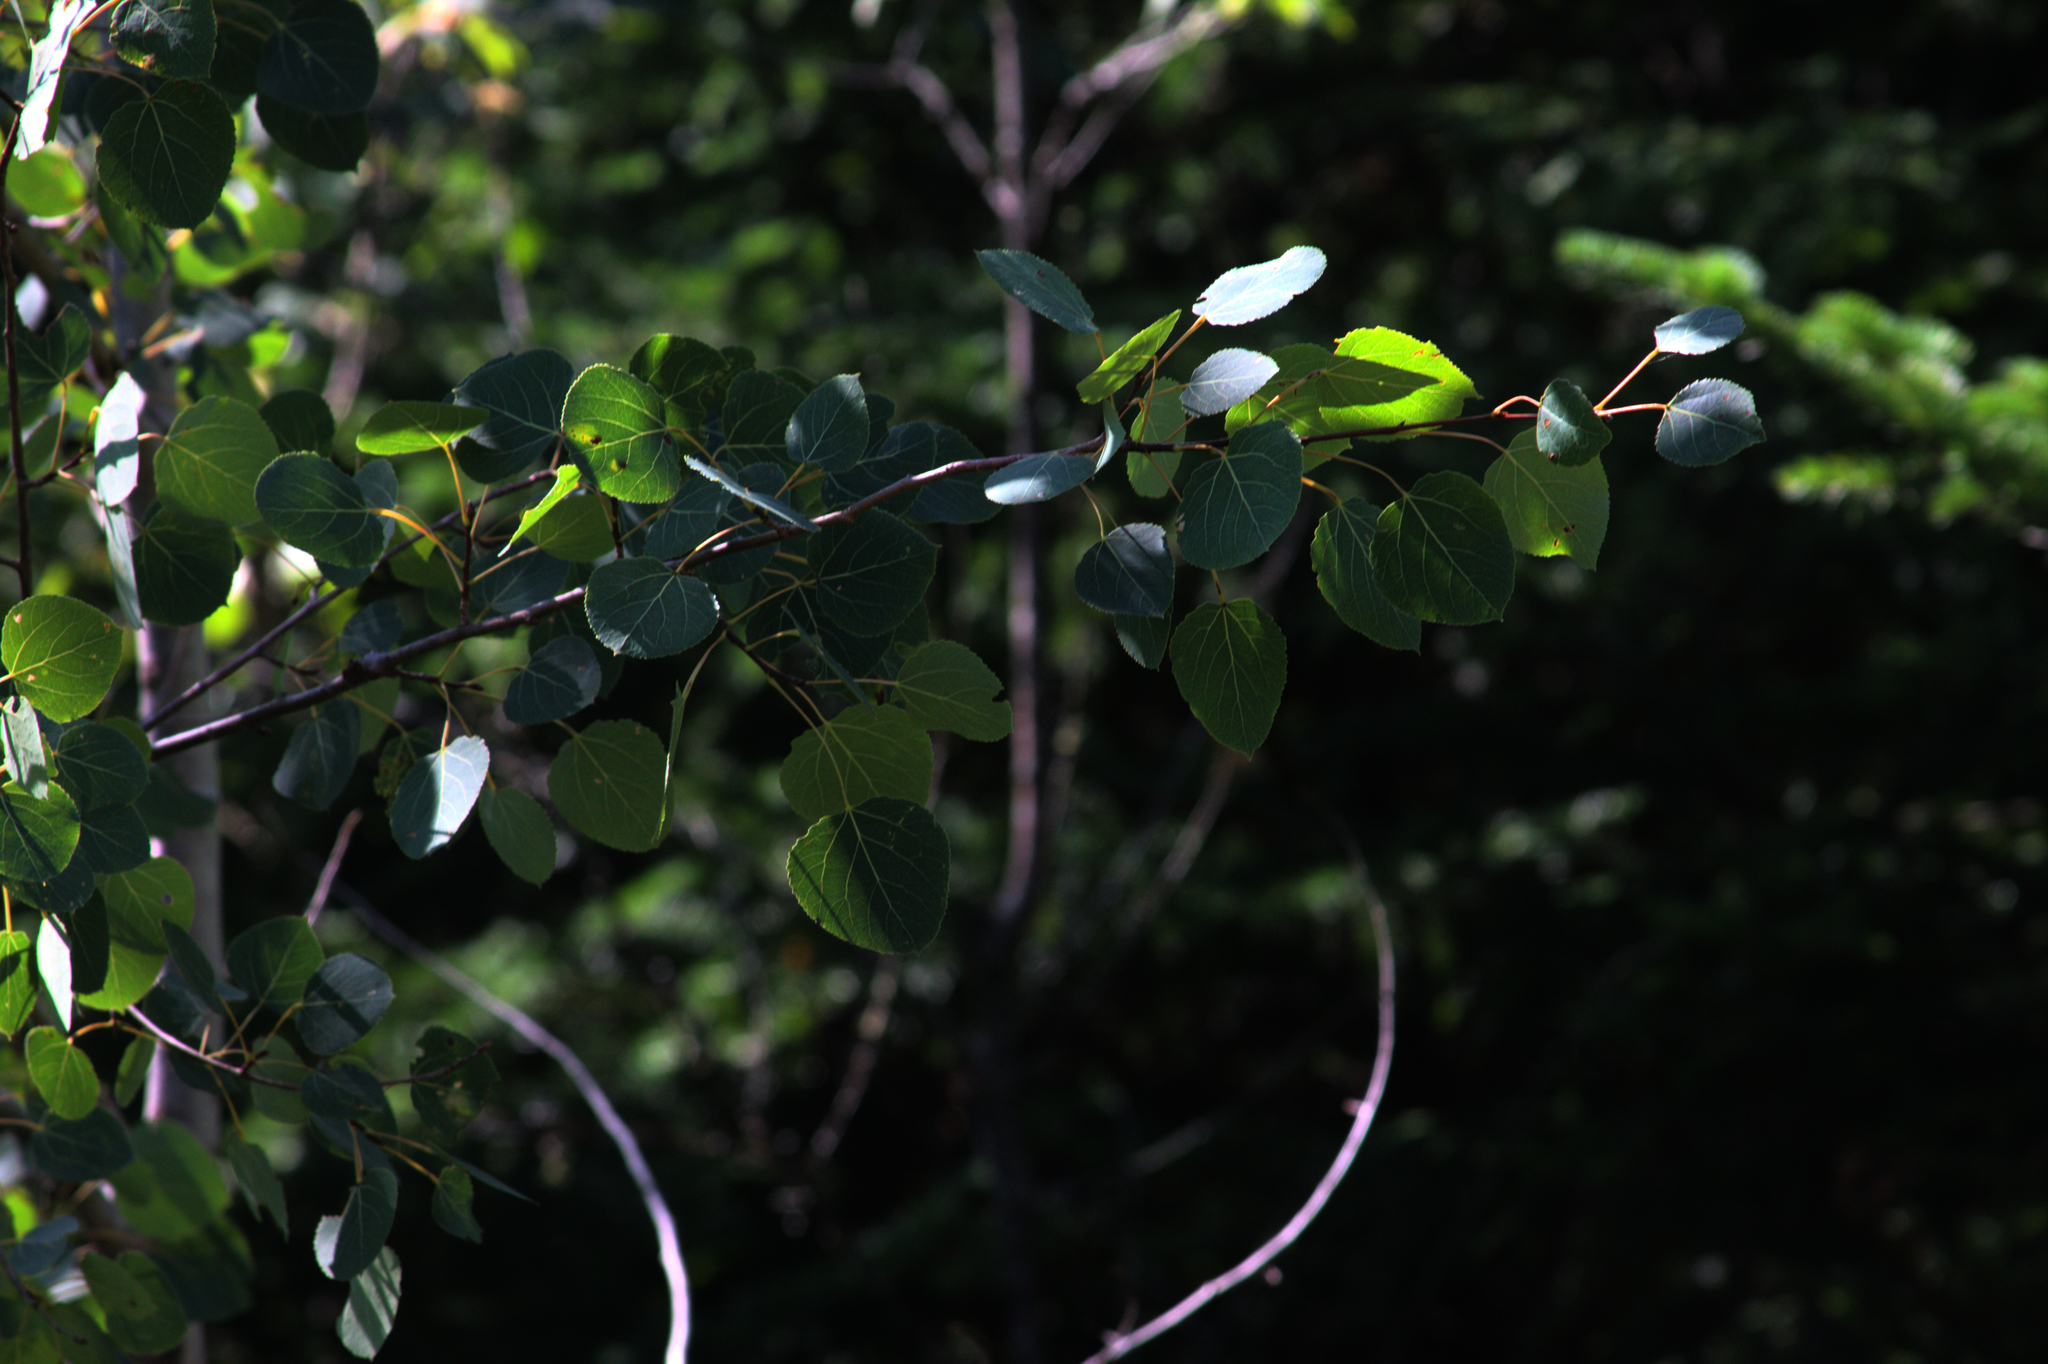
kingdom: Plantae
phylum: Tracheophyta
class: Magnoliopsida
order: Malpighiales
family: Salicaceae
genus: Populus
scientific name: Populus tremuloides
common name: Quaking aspen
